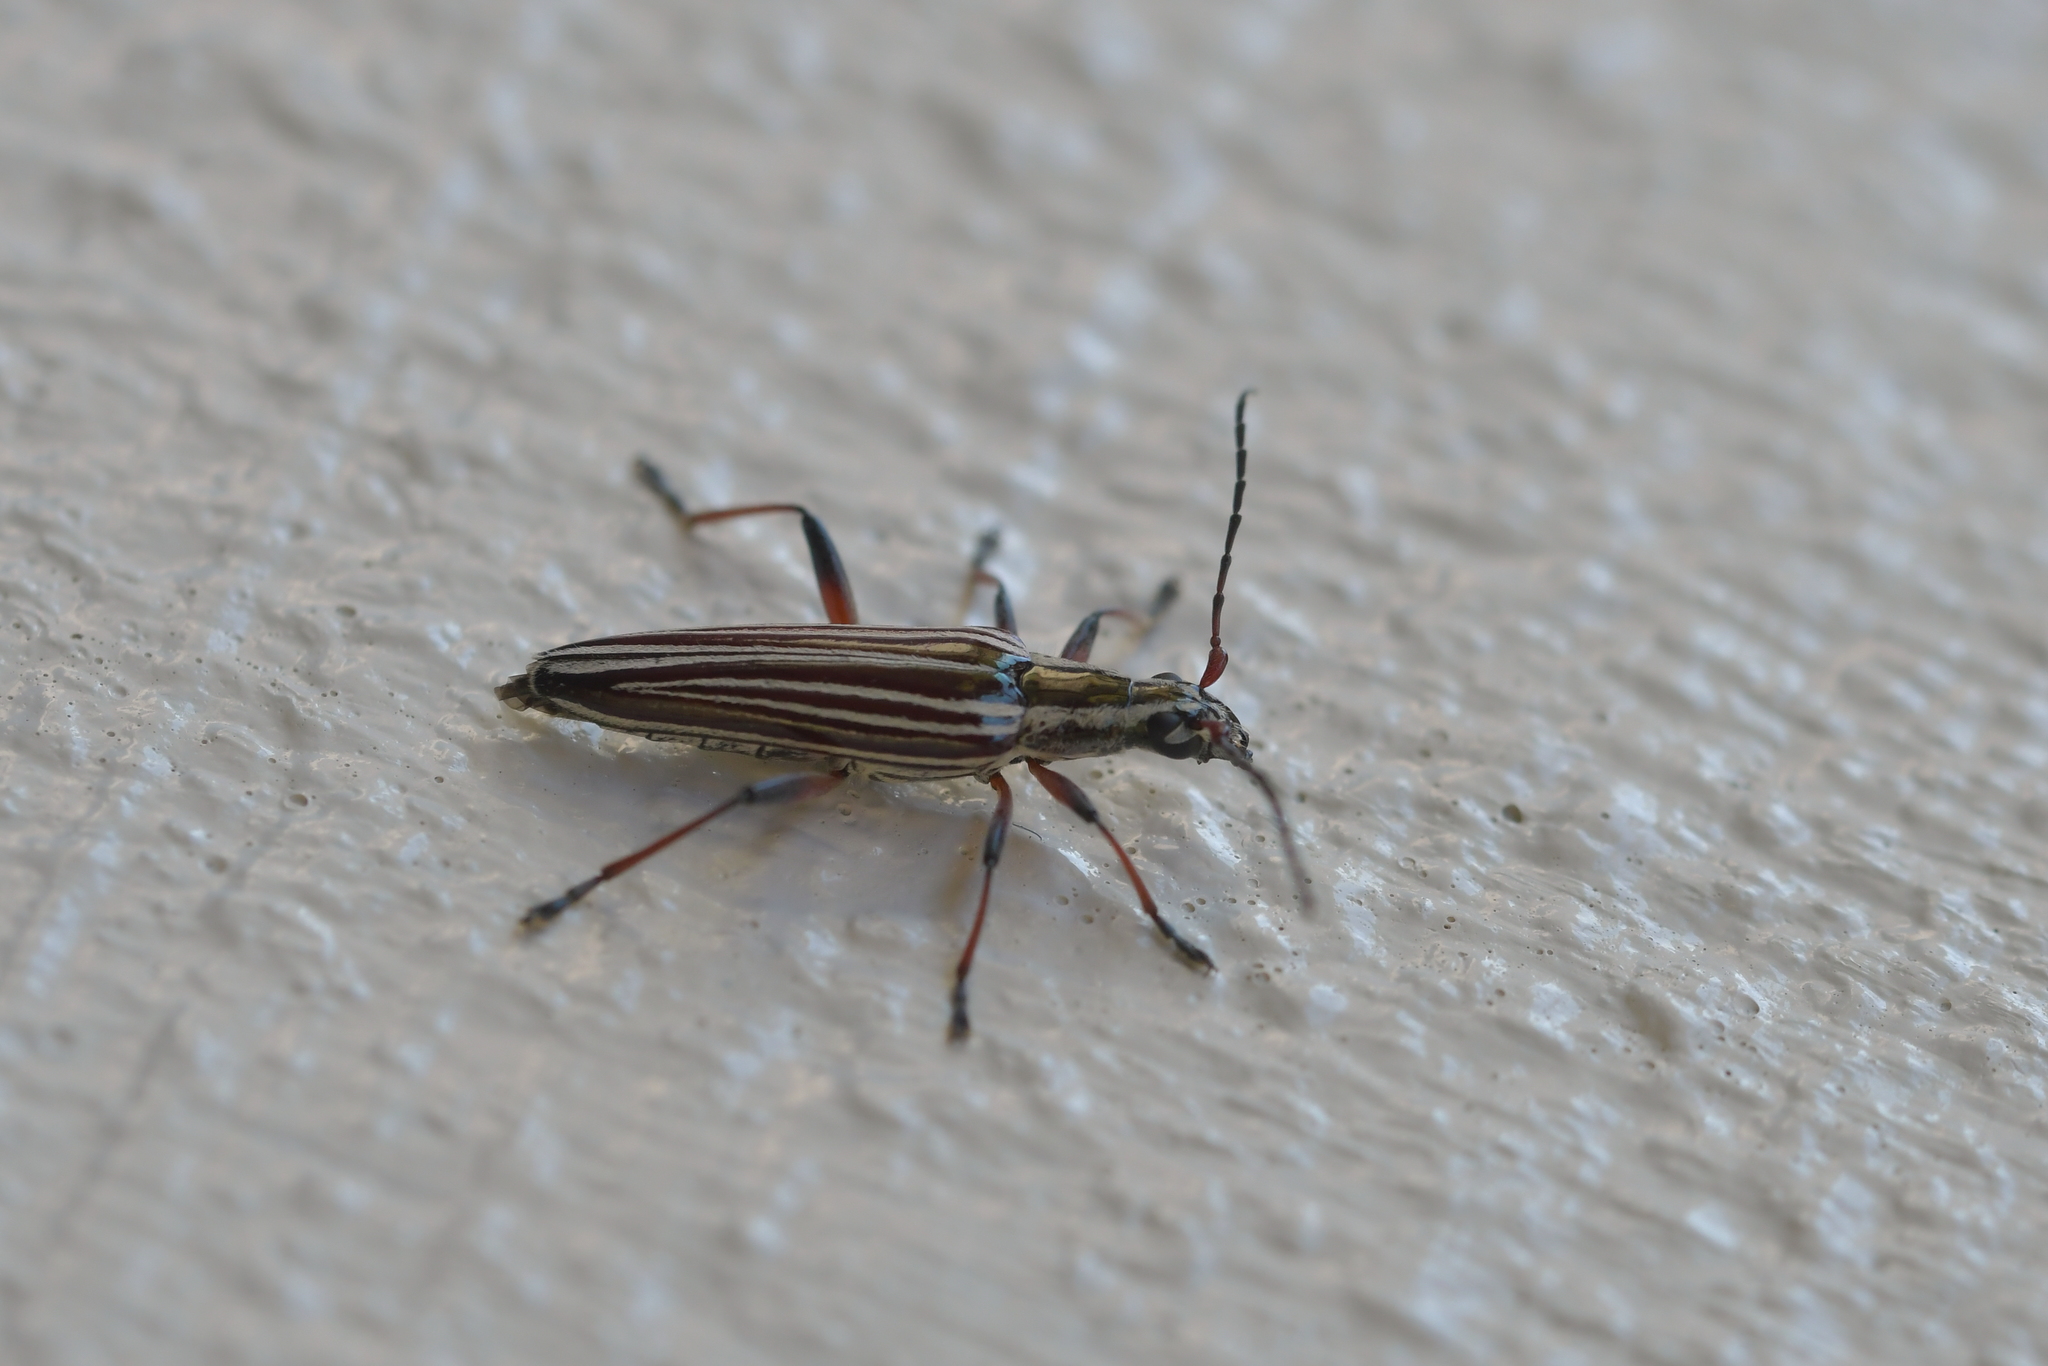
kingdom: Animalia
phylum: Arthropoda
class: Insecta
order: Coleoptera
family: Cerambycidae
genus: Coptomma
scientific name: Coptomma lineatum
